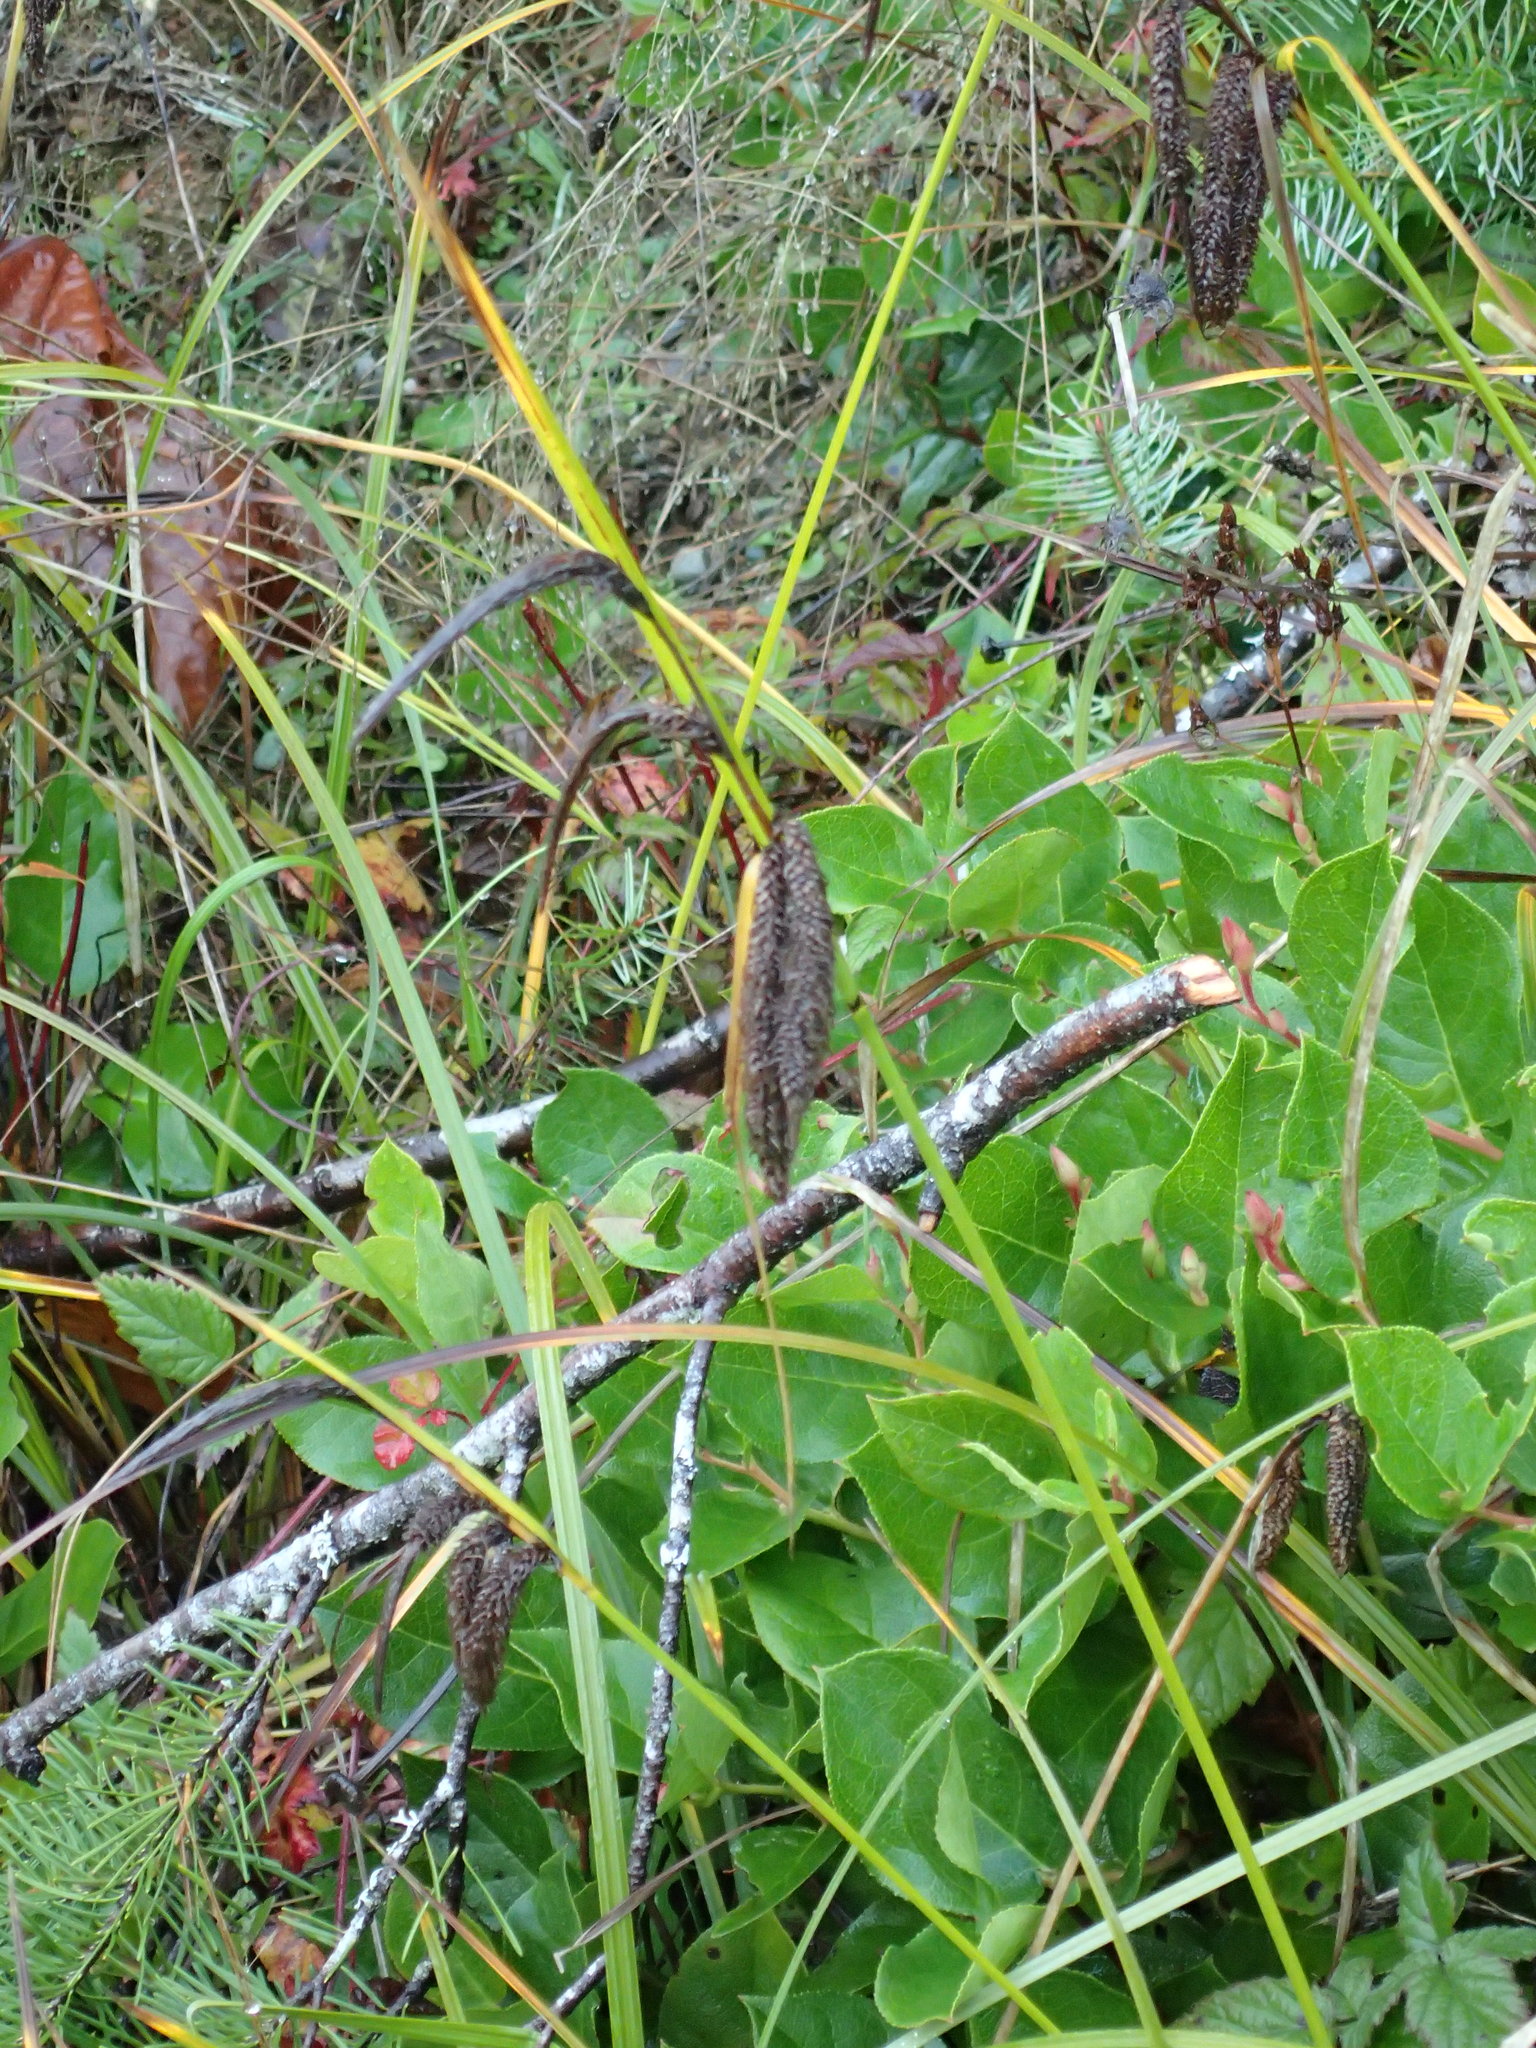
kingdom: Plantae
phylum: Tracheophyta
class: Liliopsida
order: Poales
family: Cyperaceae
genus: Carex
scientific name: Carex obnupta
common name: Slough sedge
